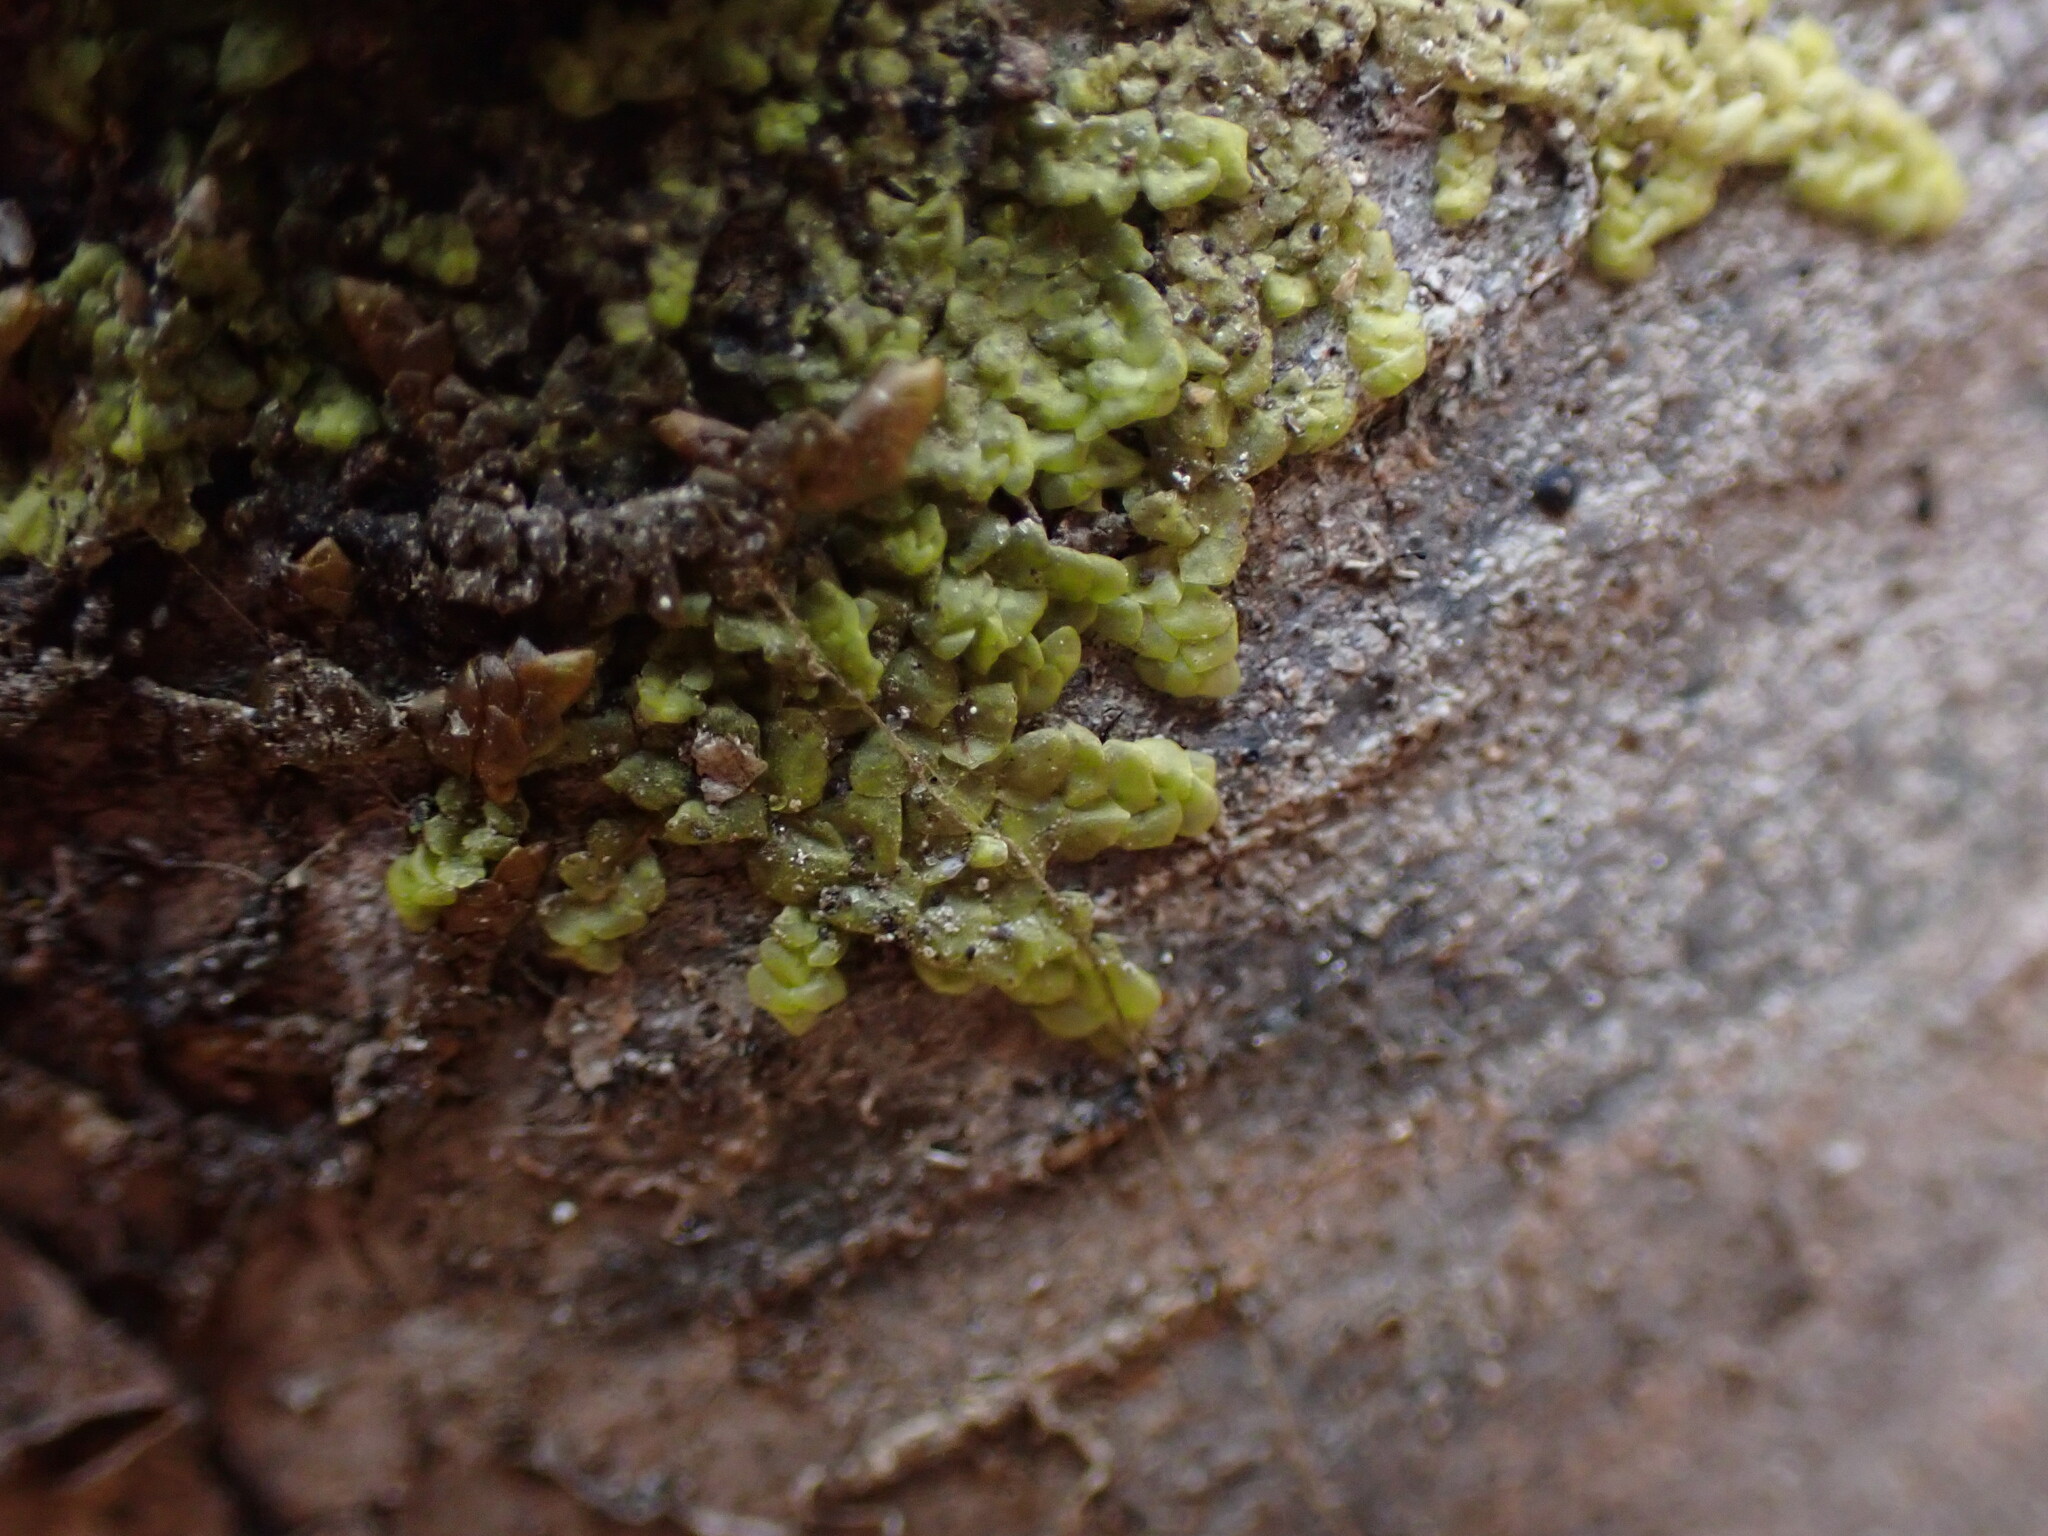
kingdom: Plantae
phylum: Marchantiophyta
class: Jungermanniopsida
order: Porellales
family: Radulaceae
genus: Radula
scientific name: Radula complanata
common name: Flat-leaved scalewort
